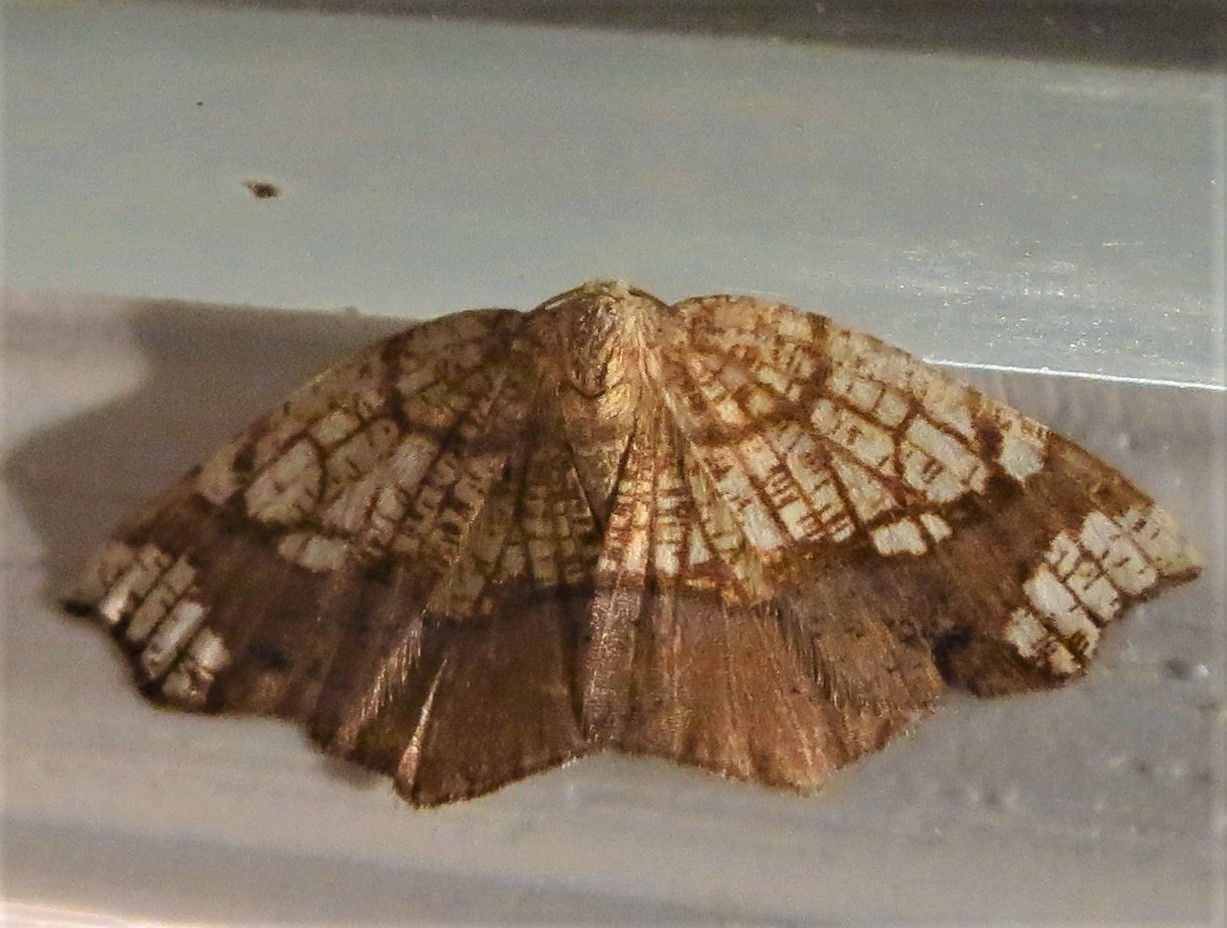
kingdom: Animalia
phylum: Arthropoda
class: Insecta
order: Lepidoptera
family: Geometridae
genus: Nematocampa
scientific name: Nematocampa resistaria
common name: Horned spanworm moth
